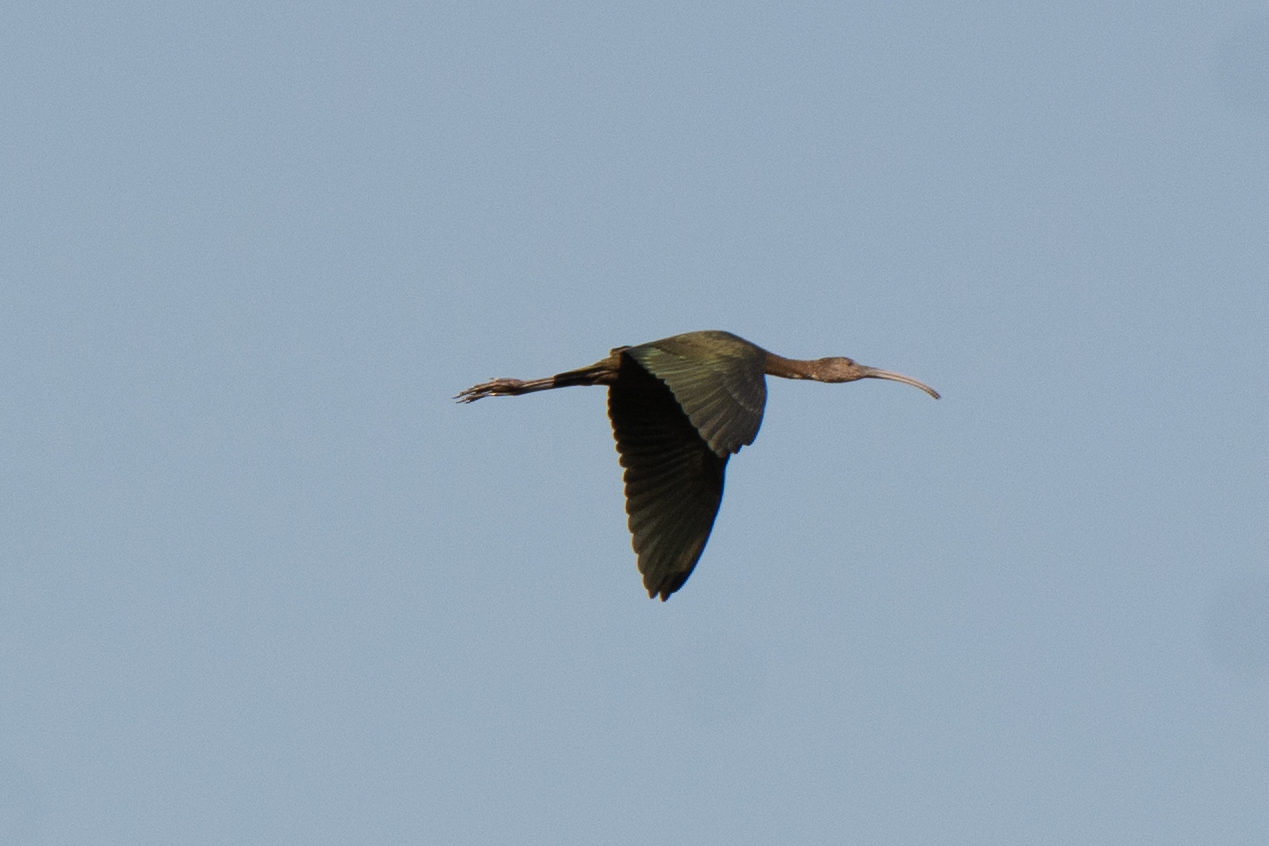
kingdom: Animalia
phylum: Chordata
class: Aves
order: Pelecaniformes
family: Threskiornithidae
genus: Plegadis
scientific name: Plegadis chihi
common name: White-faced ibis
